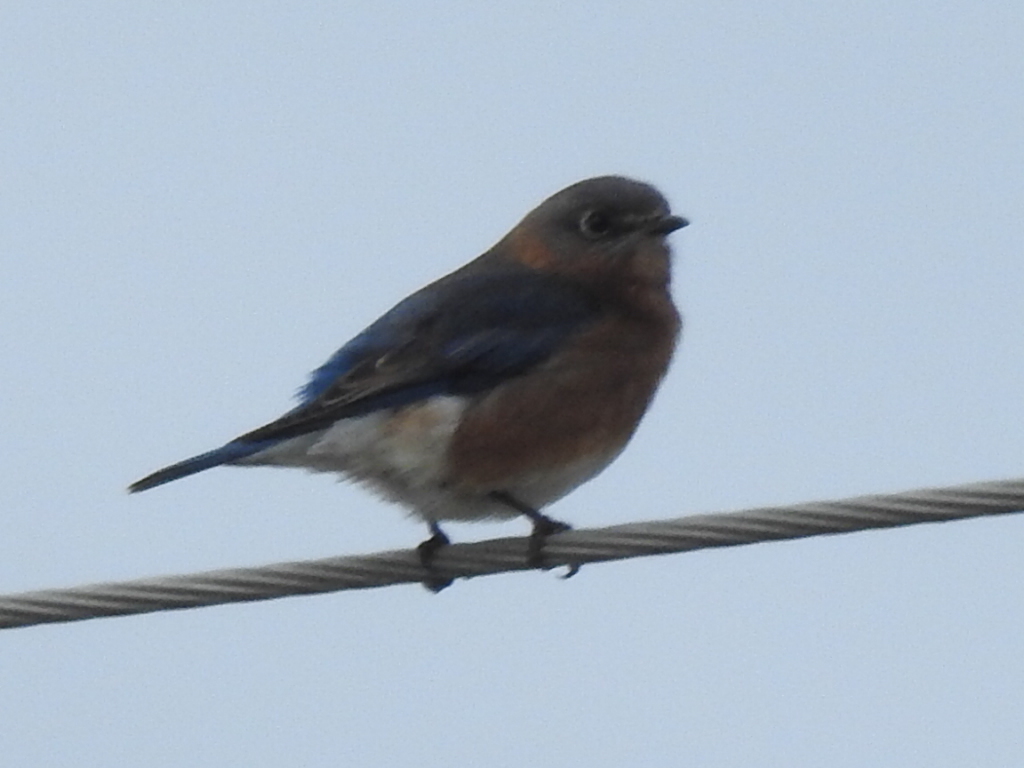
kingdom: Animalia
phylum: Chordata
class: Aves
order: Passeriformes
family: Turdidae
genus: Sialia
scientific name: Sialia sialis
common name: Eastern bluebird
